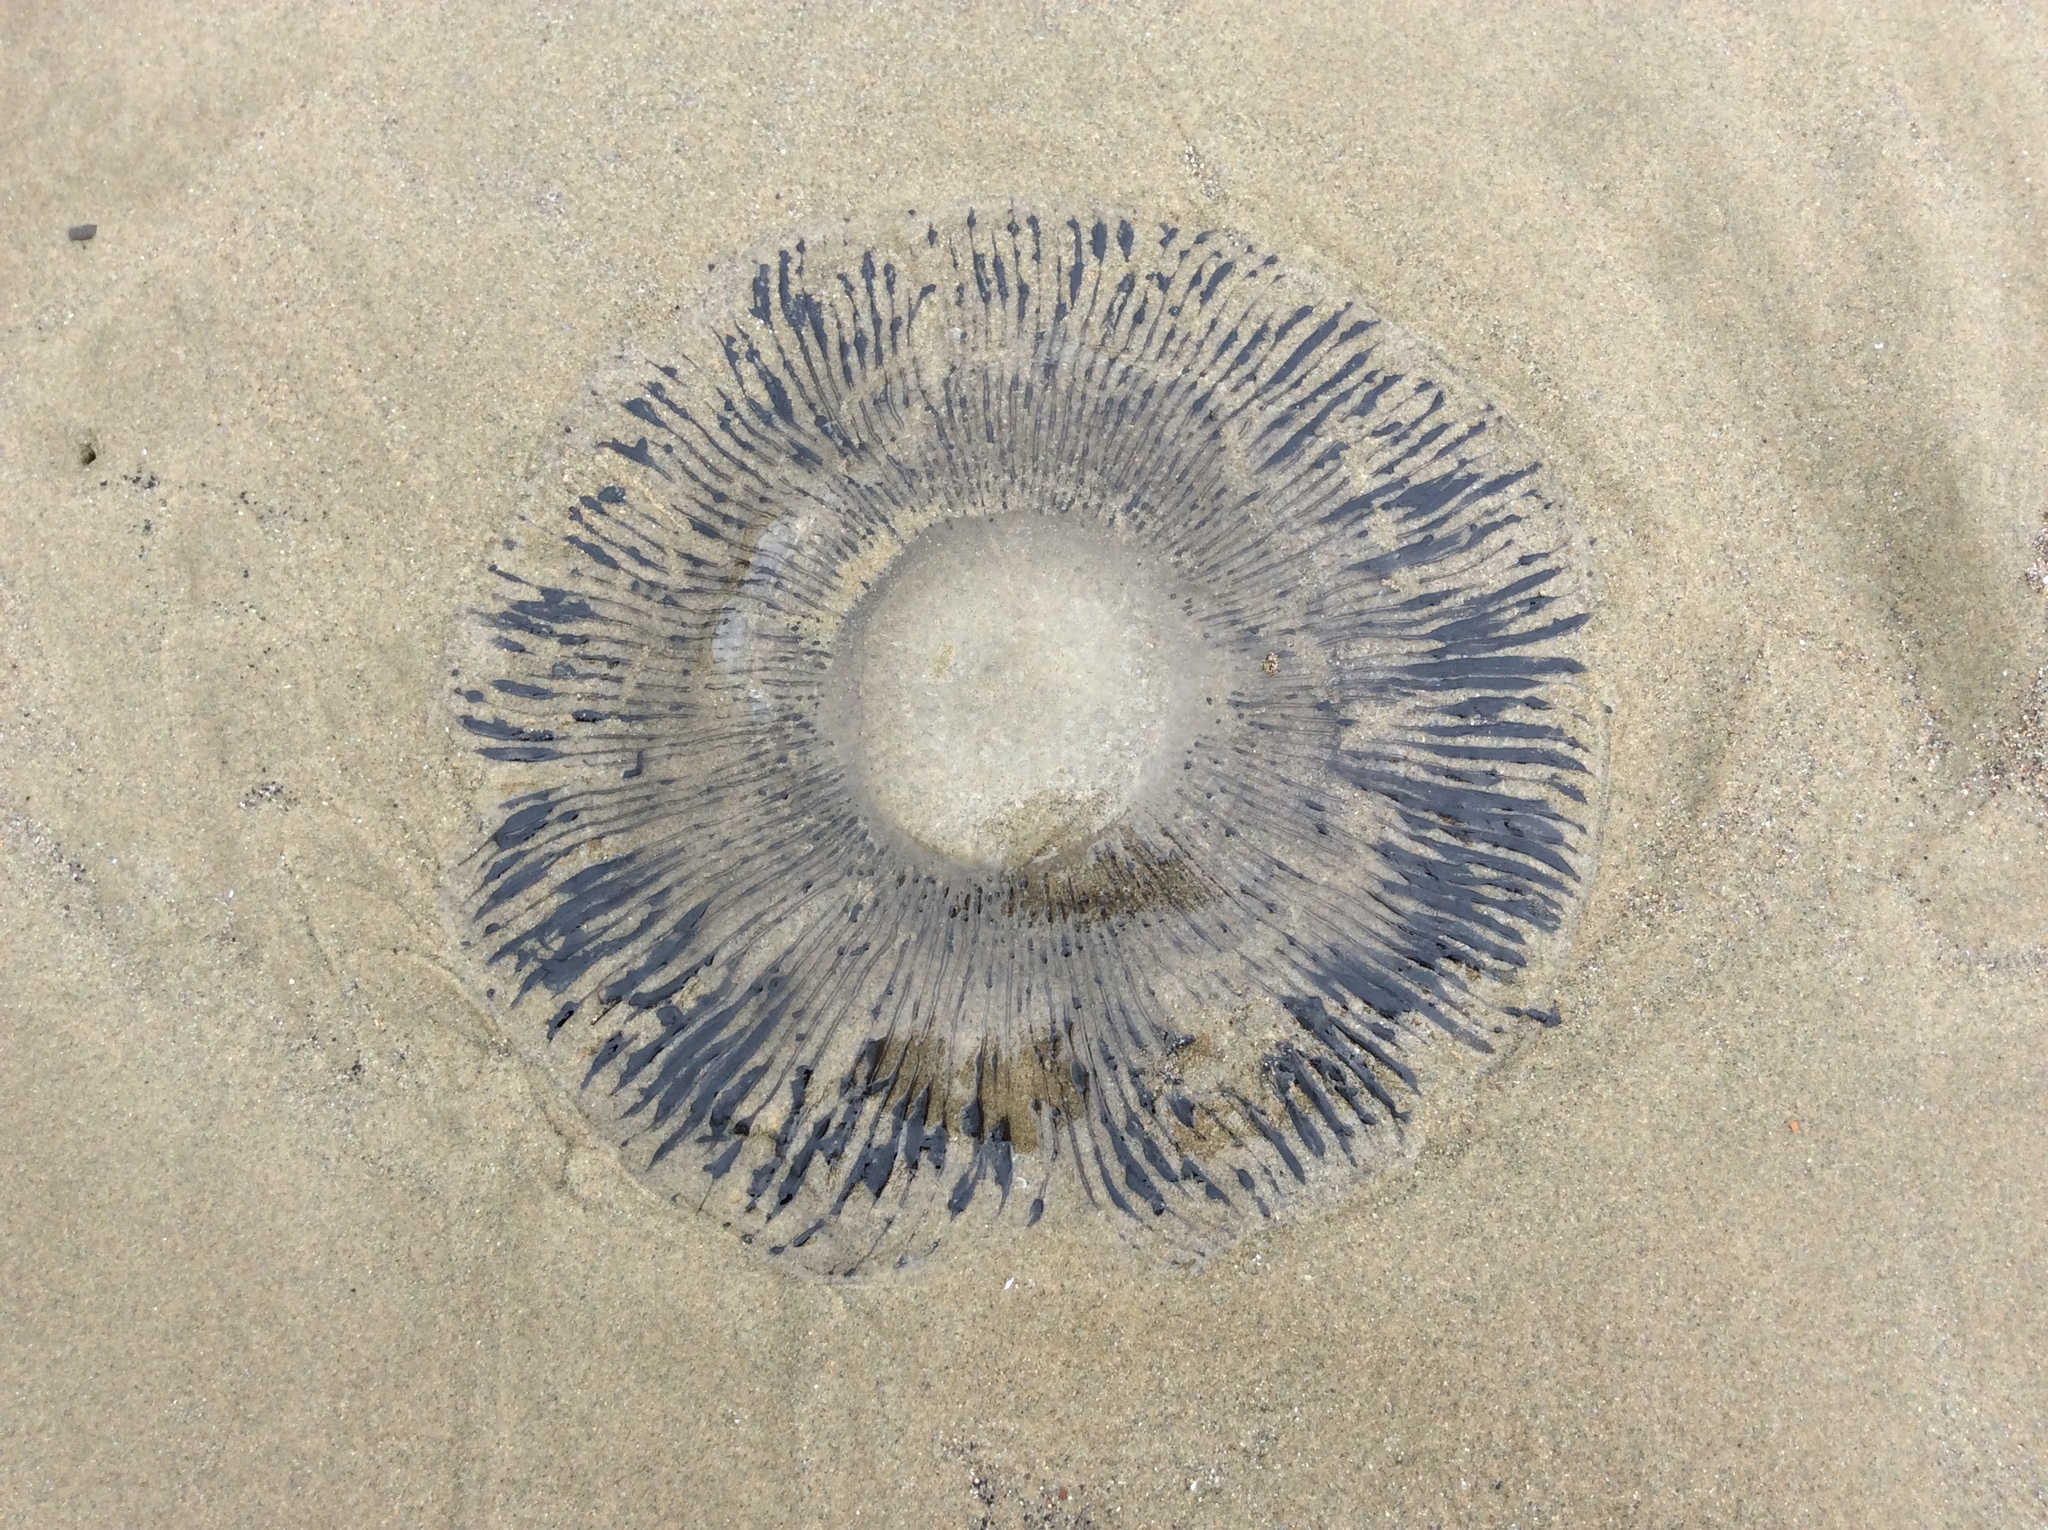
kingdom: Animalia
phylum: Cnidaria
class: Hydrozoa
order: Leptothecata
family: Aequoreidae
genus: Aequorea
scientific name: Aequorea forskalea
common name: Many-ribbed jellyfish
